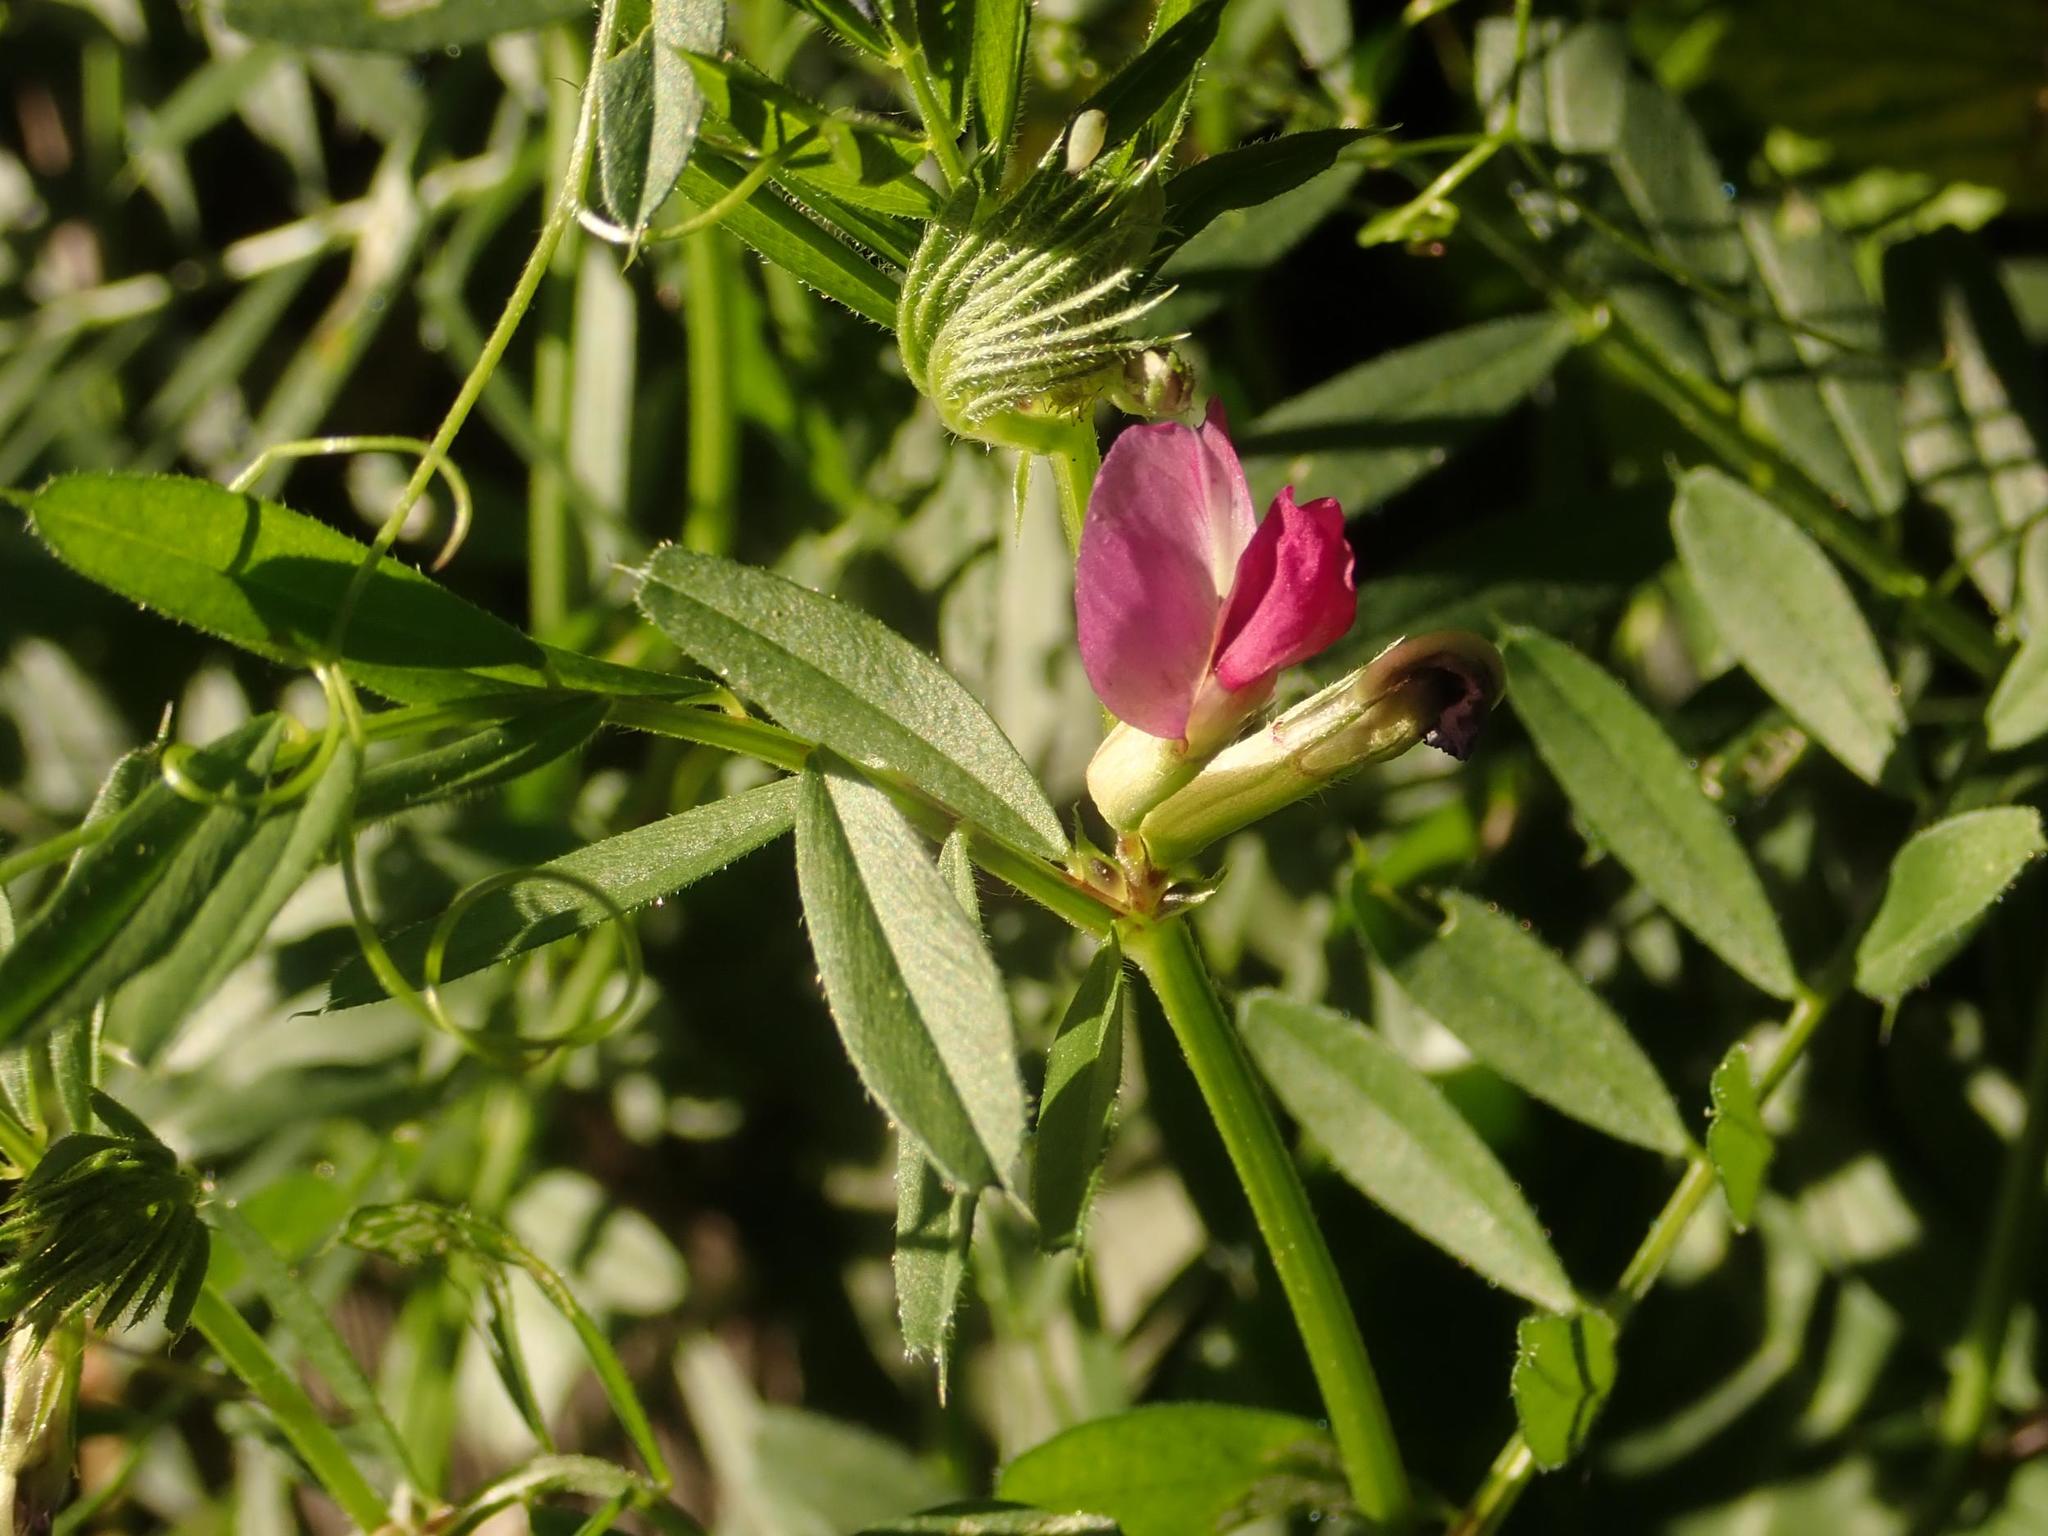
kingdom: Plantae
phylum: Tracheophyta
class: Magnoliopsida
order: Fabales
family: Fabaceae
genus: Vicia
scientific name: Vicia sativa
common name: Garden vetch
